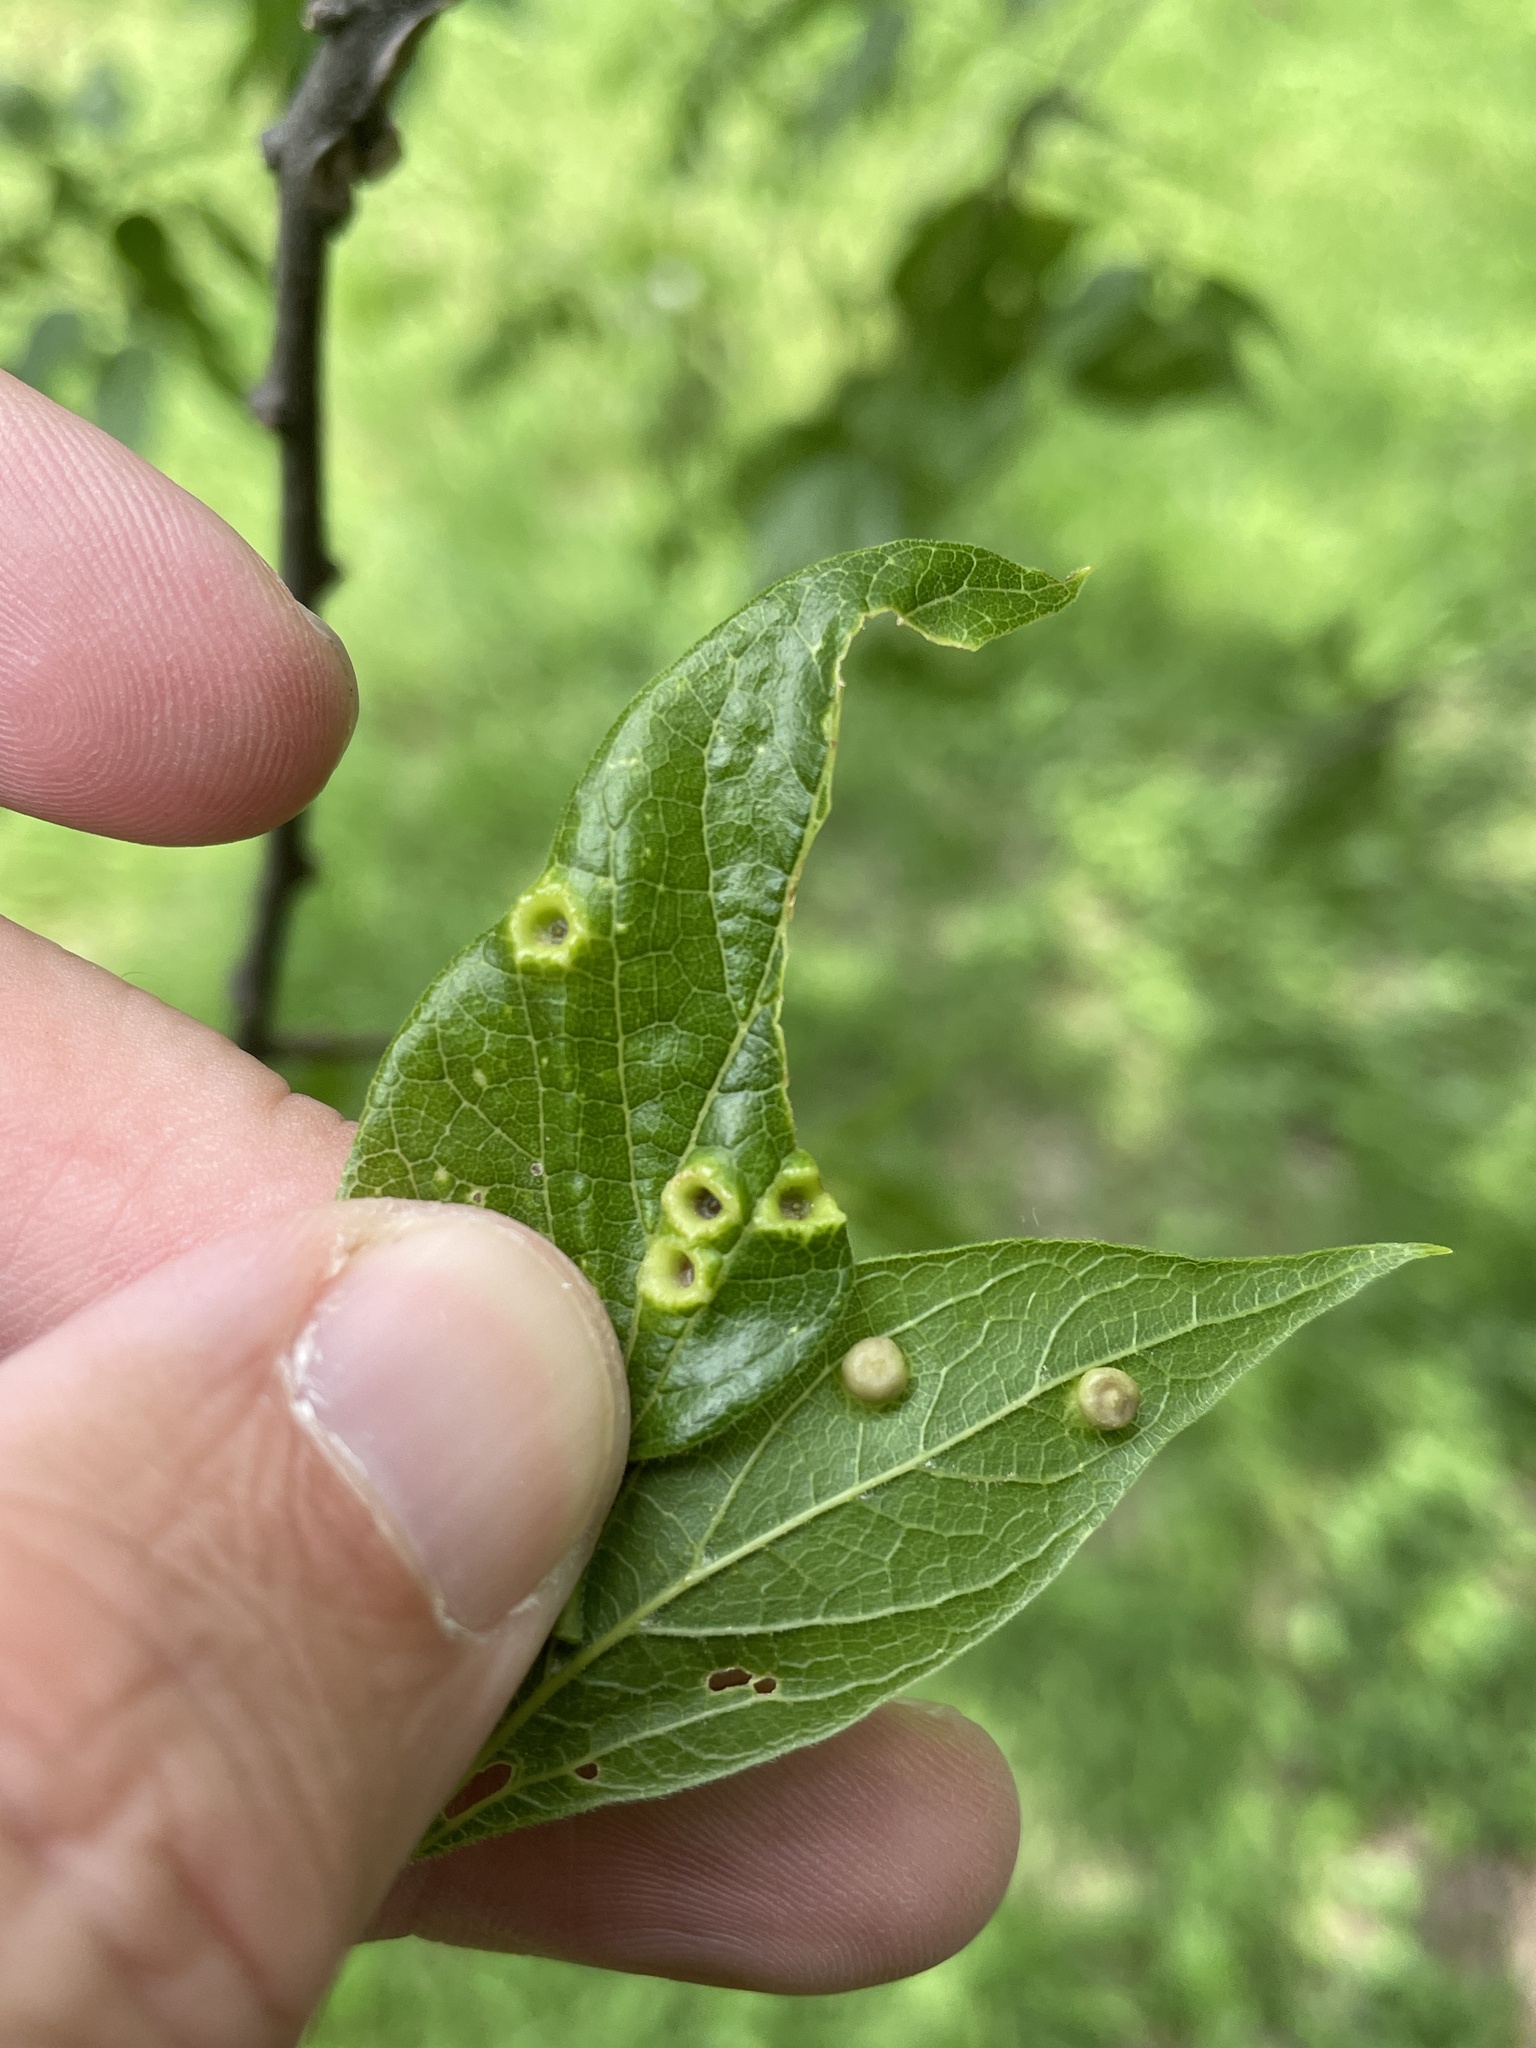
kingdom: Animalia
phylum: Arthropoda
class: Insecta
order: Hemiptera
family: Aphalaridae
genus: Pachypsylla
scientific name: Pachypsylla celtidismamma
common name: Hackberry nipplegall psyllid
